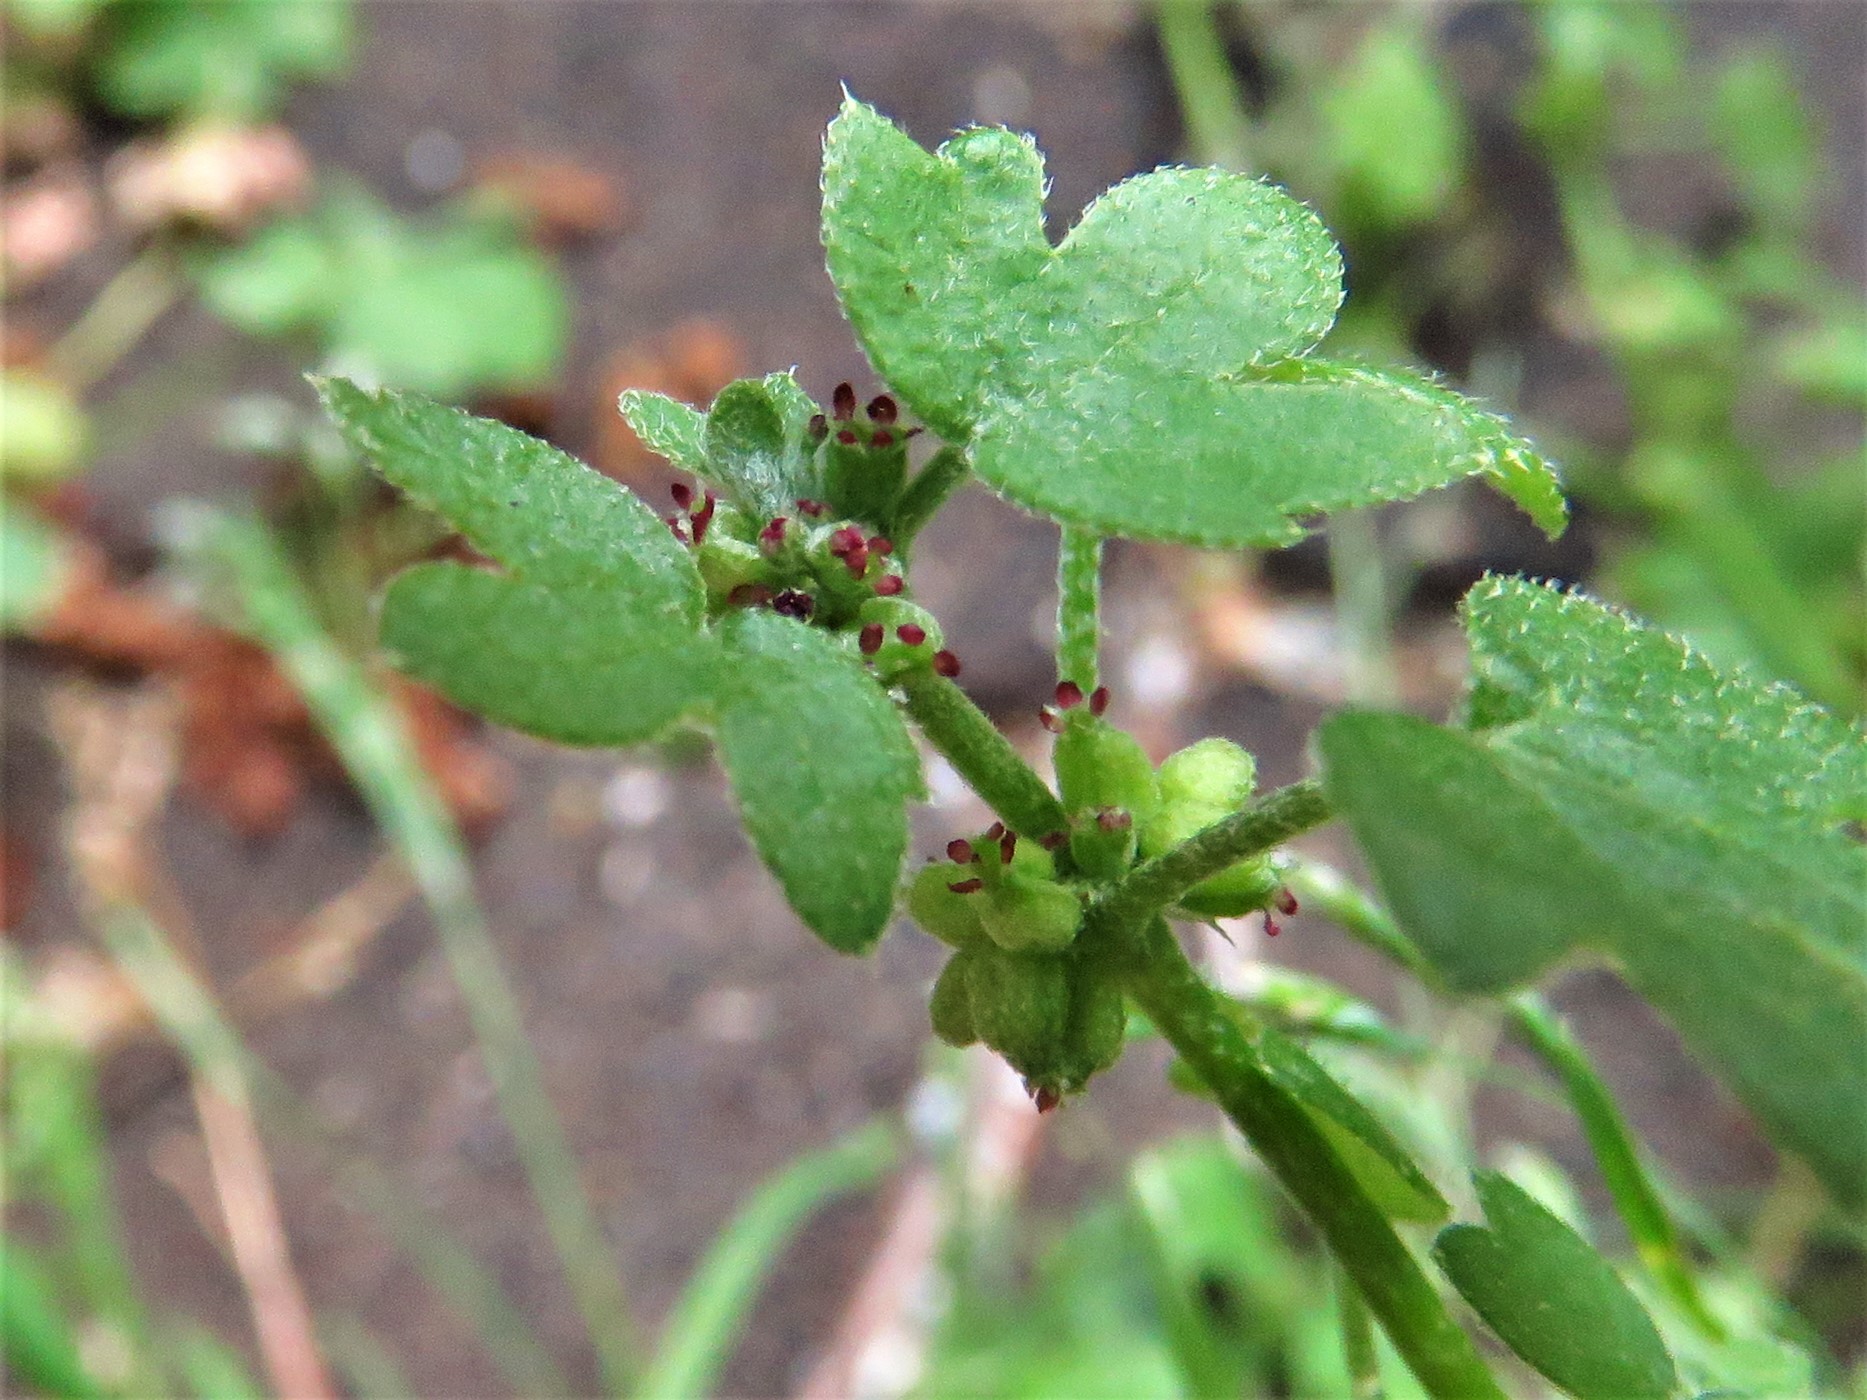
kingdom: Plantae
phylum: Tracheophyta
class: Magnoliopsida
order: Apiales
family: Apiaceae
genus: Bowlesia
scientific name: Bowlesia incana
